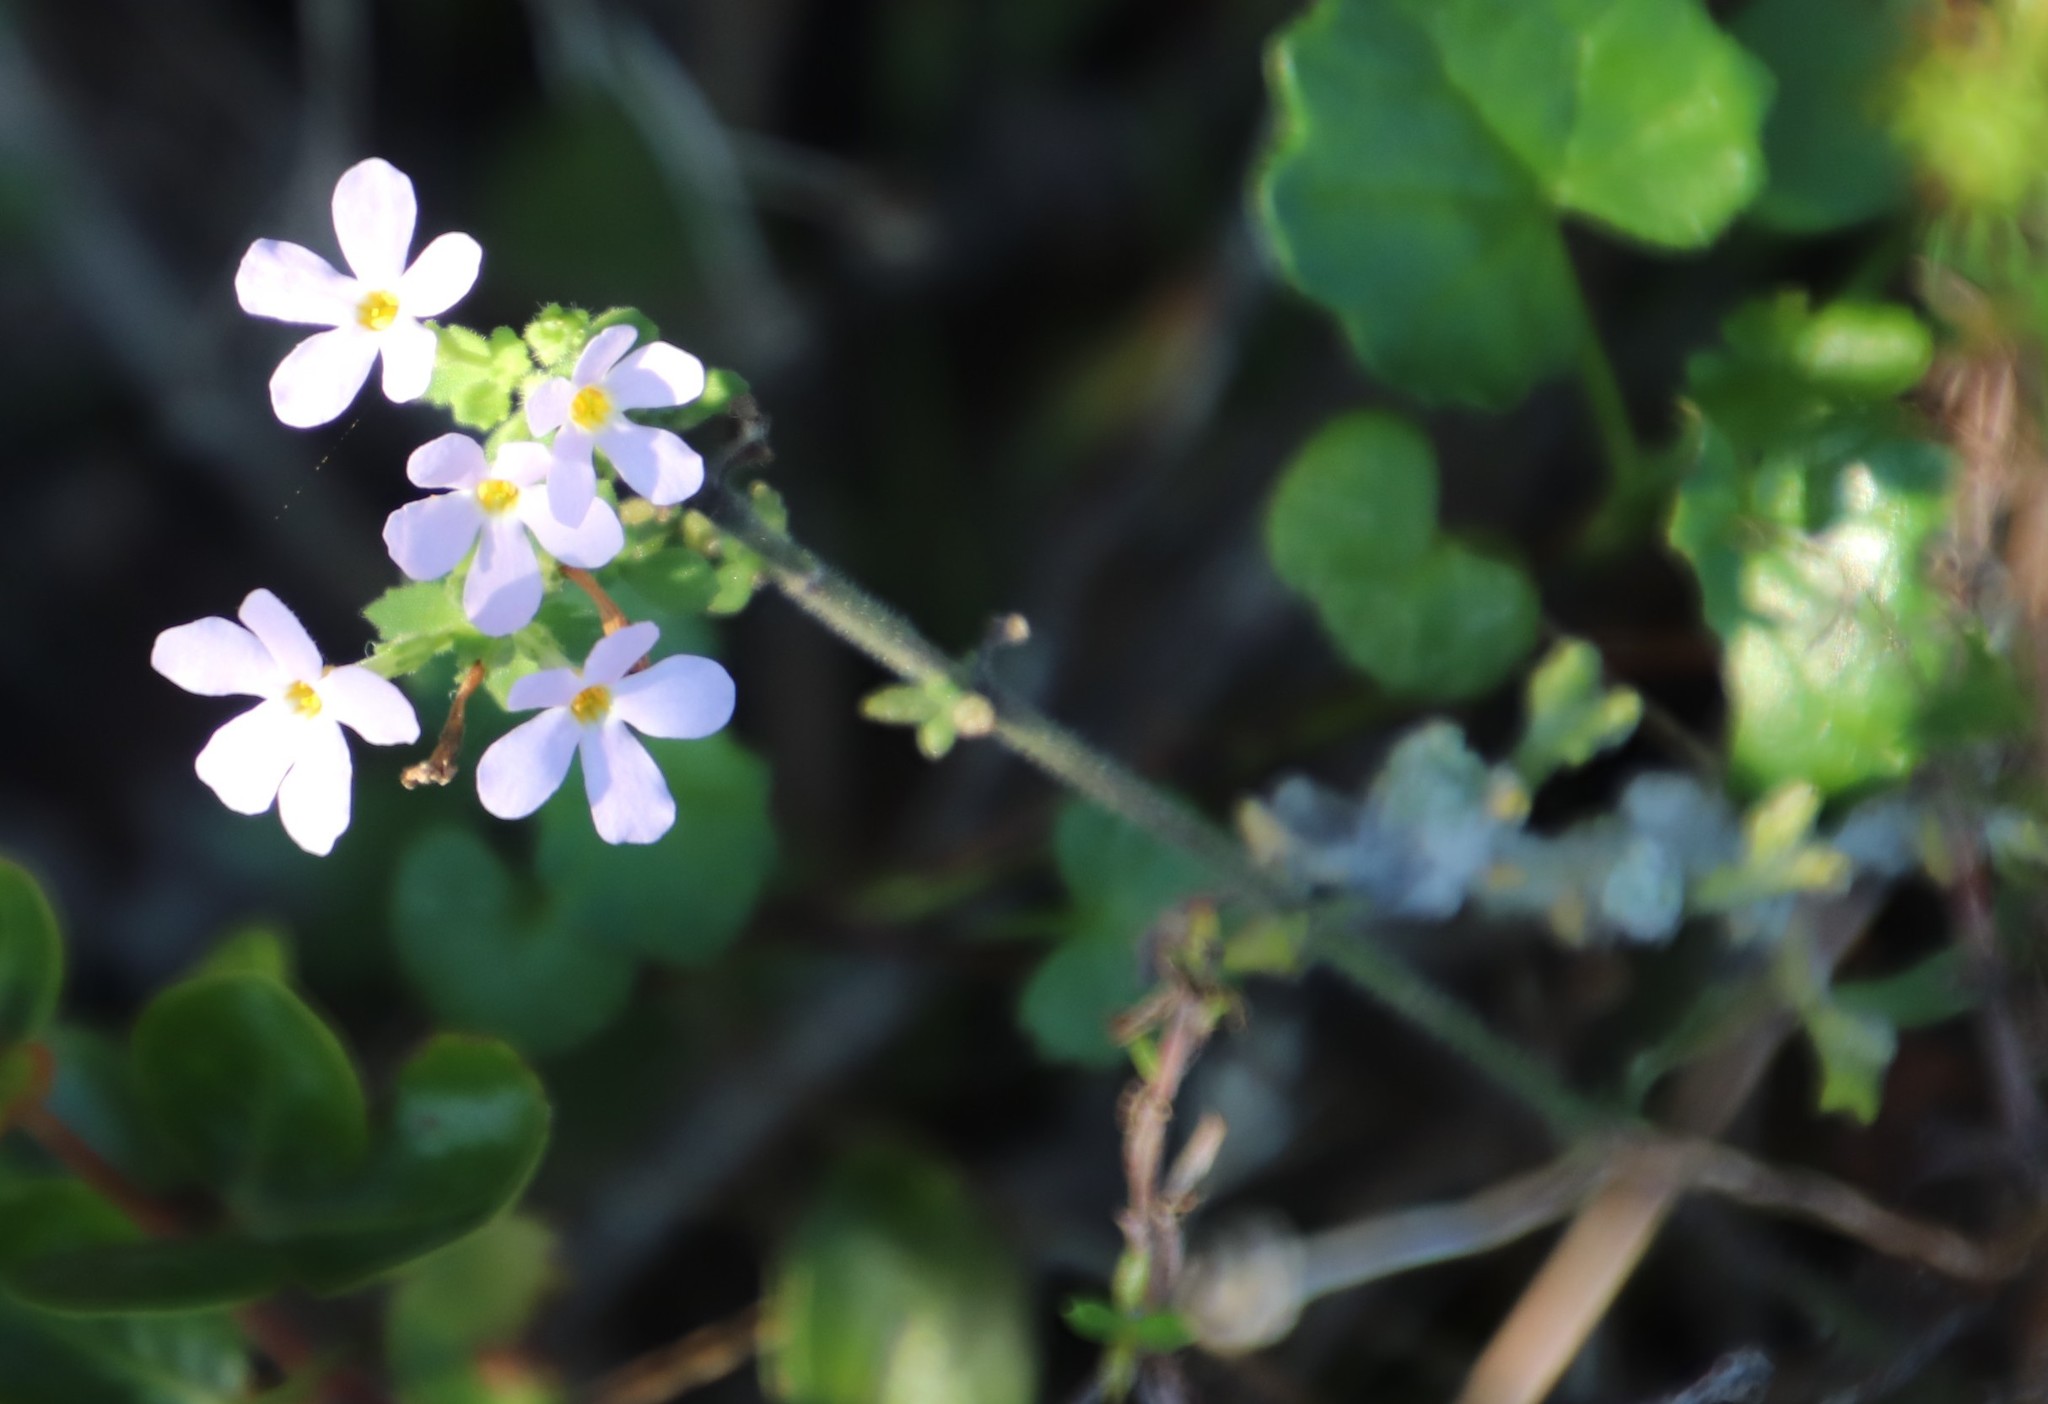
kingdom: Plantae
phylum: Tracheophyta
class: Magnoliopsida
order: Lamiales
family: Scrophulariaceae
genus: Chaenostoma
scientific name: Chaenostoma hispidum
